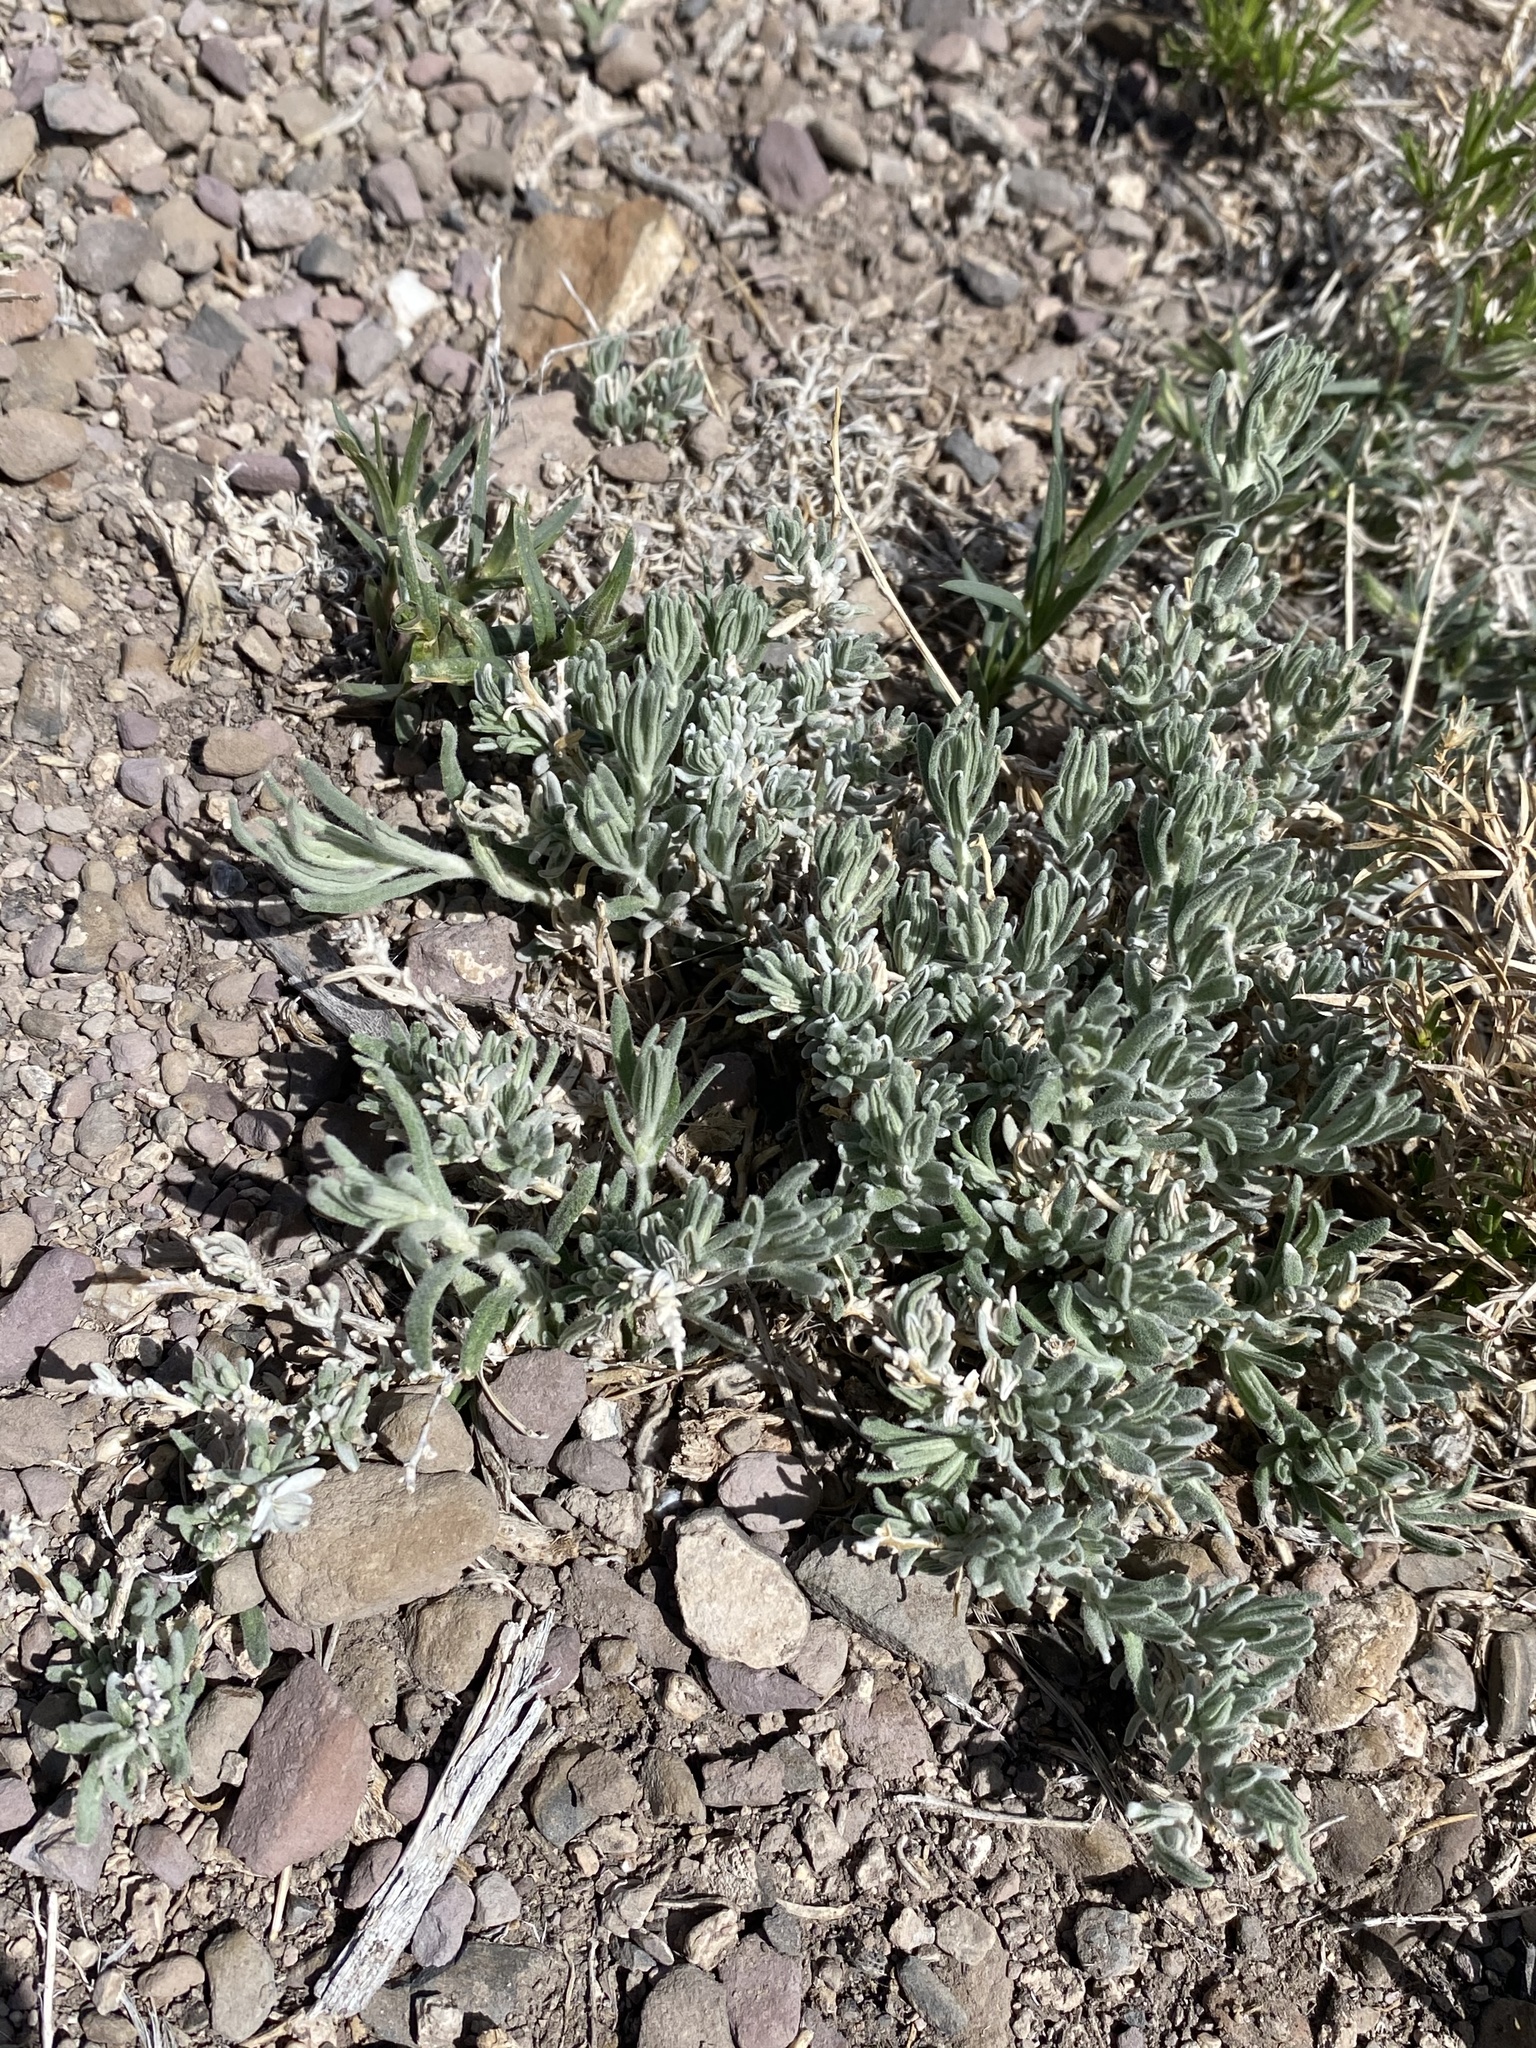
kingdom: Plantae
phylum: Tracheophyta
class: Magnoliopsida
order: Caryophyllales
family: Amaranthaceae
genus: Krascheninnikovia
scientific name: Krascheninnikovia lanata
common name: Winterfat
